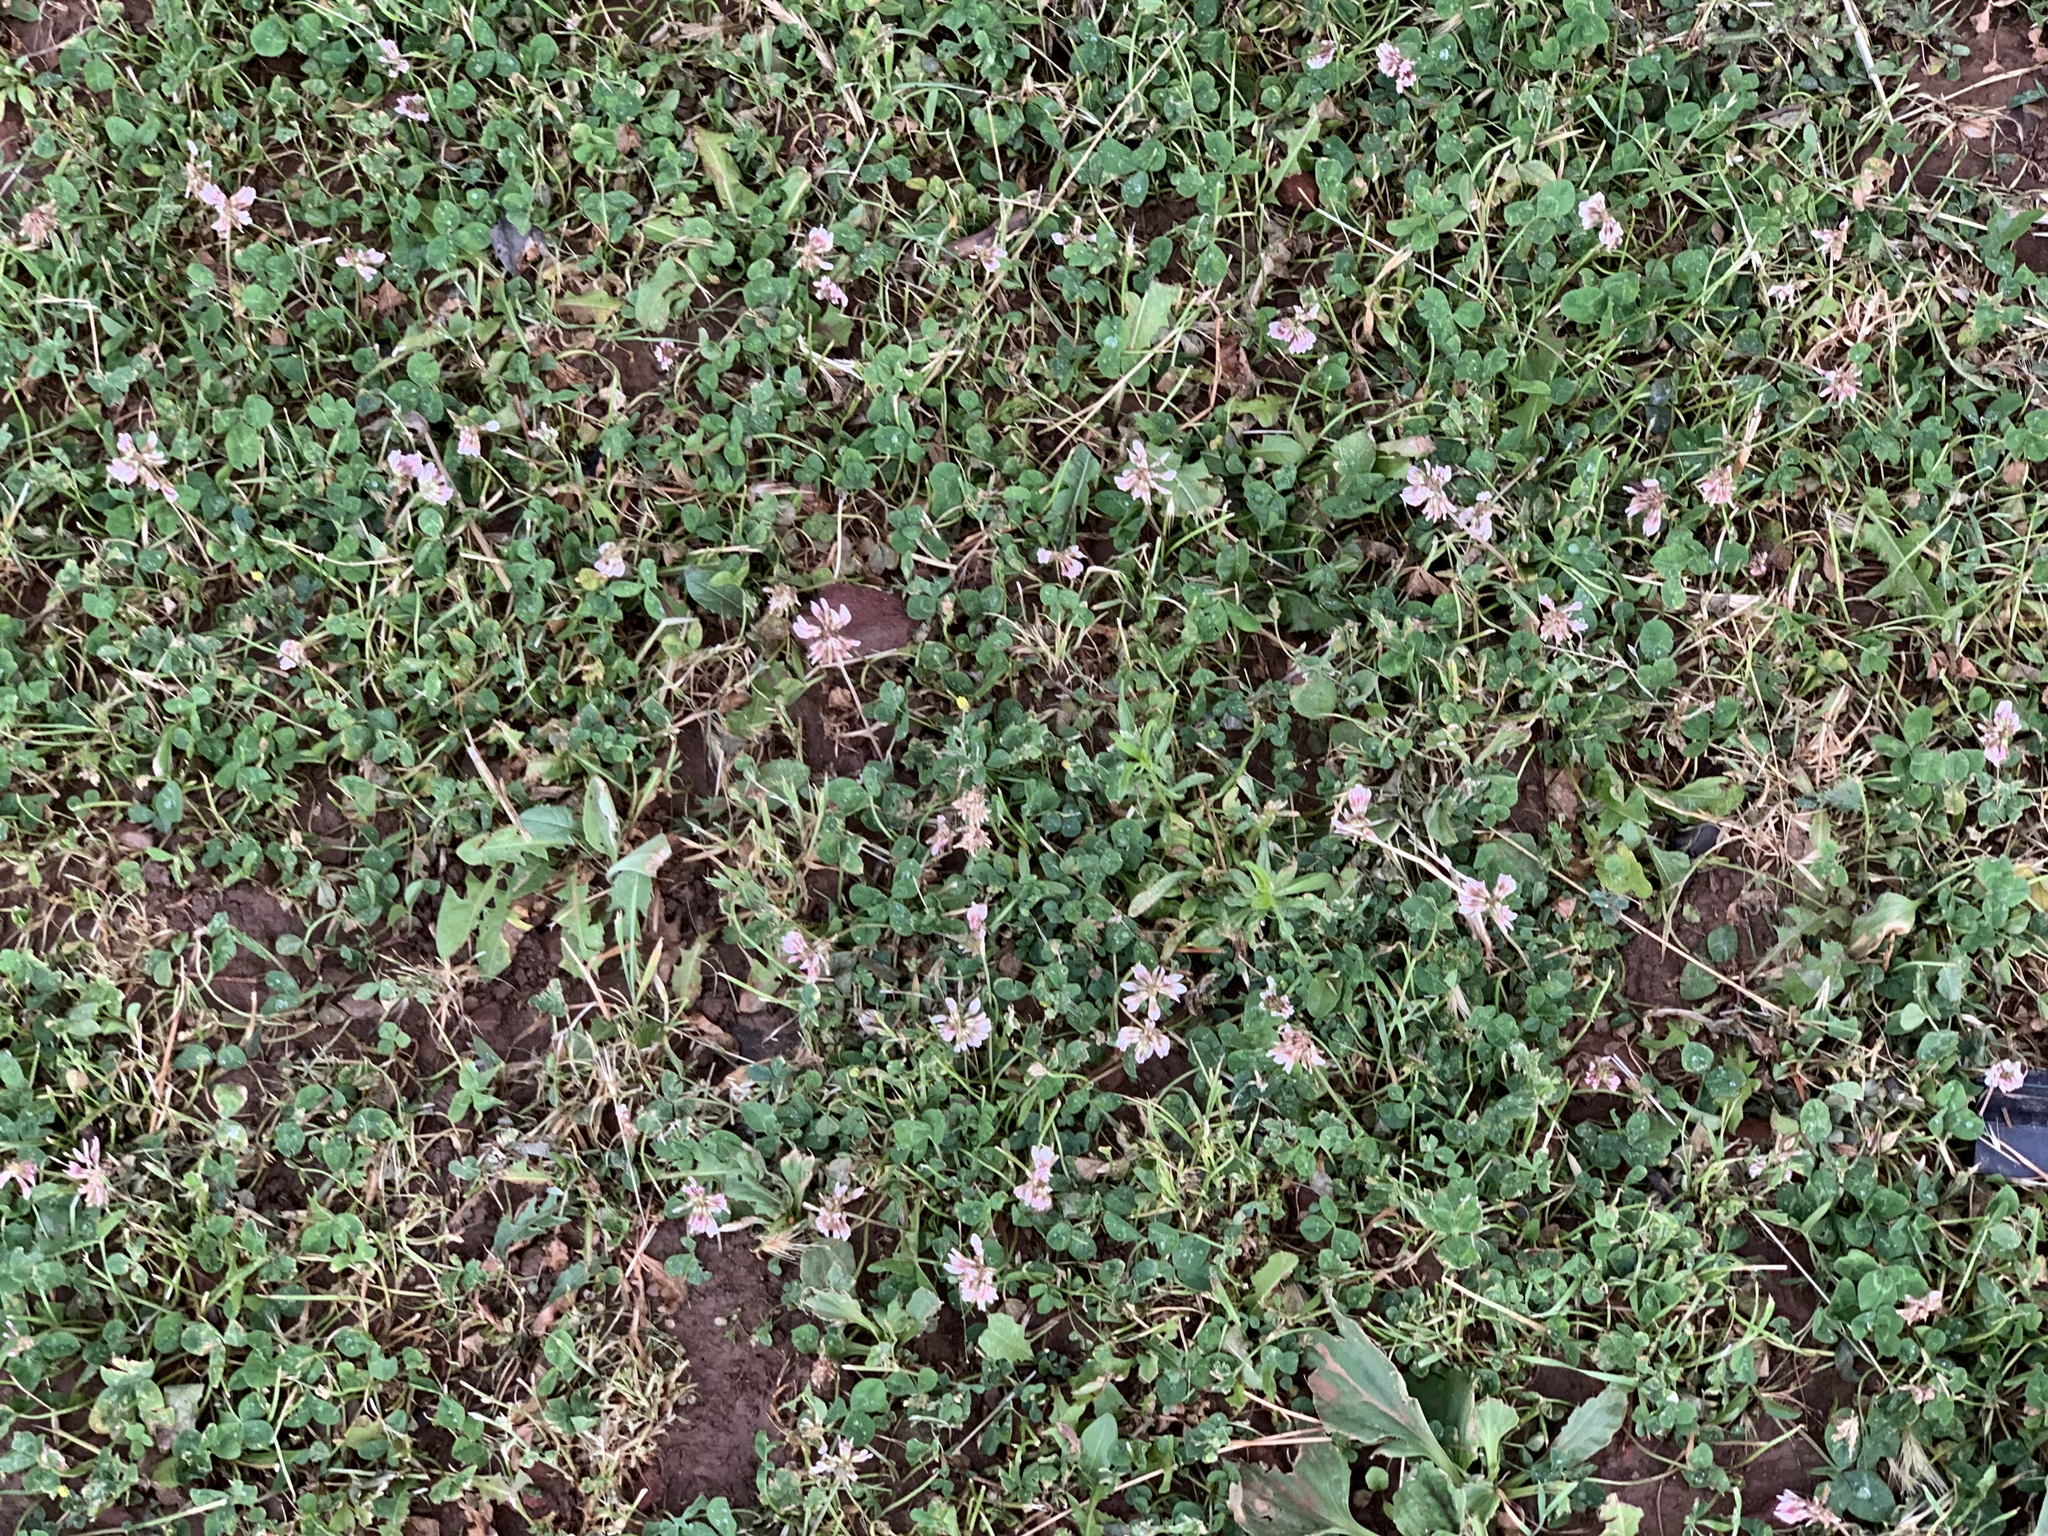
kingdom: Plantae
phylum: Tracheophyta
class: Magnoliopsida
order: Fabales
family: Fabaceae
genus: Trifolium
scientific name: Trifolium repens
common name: White clover
